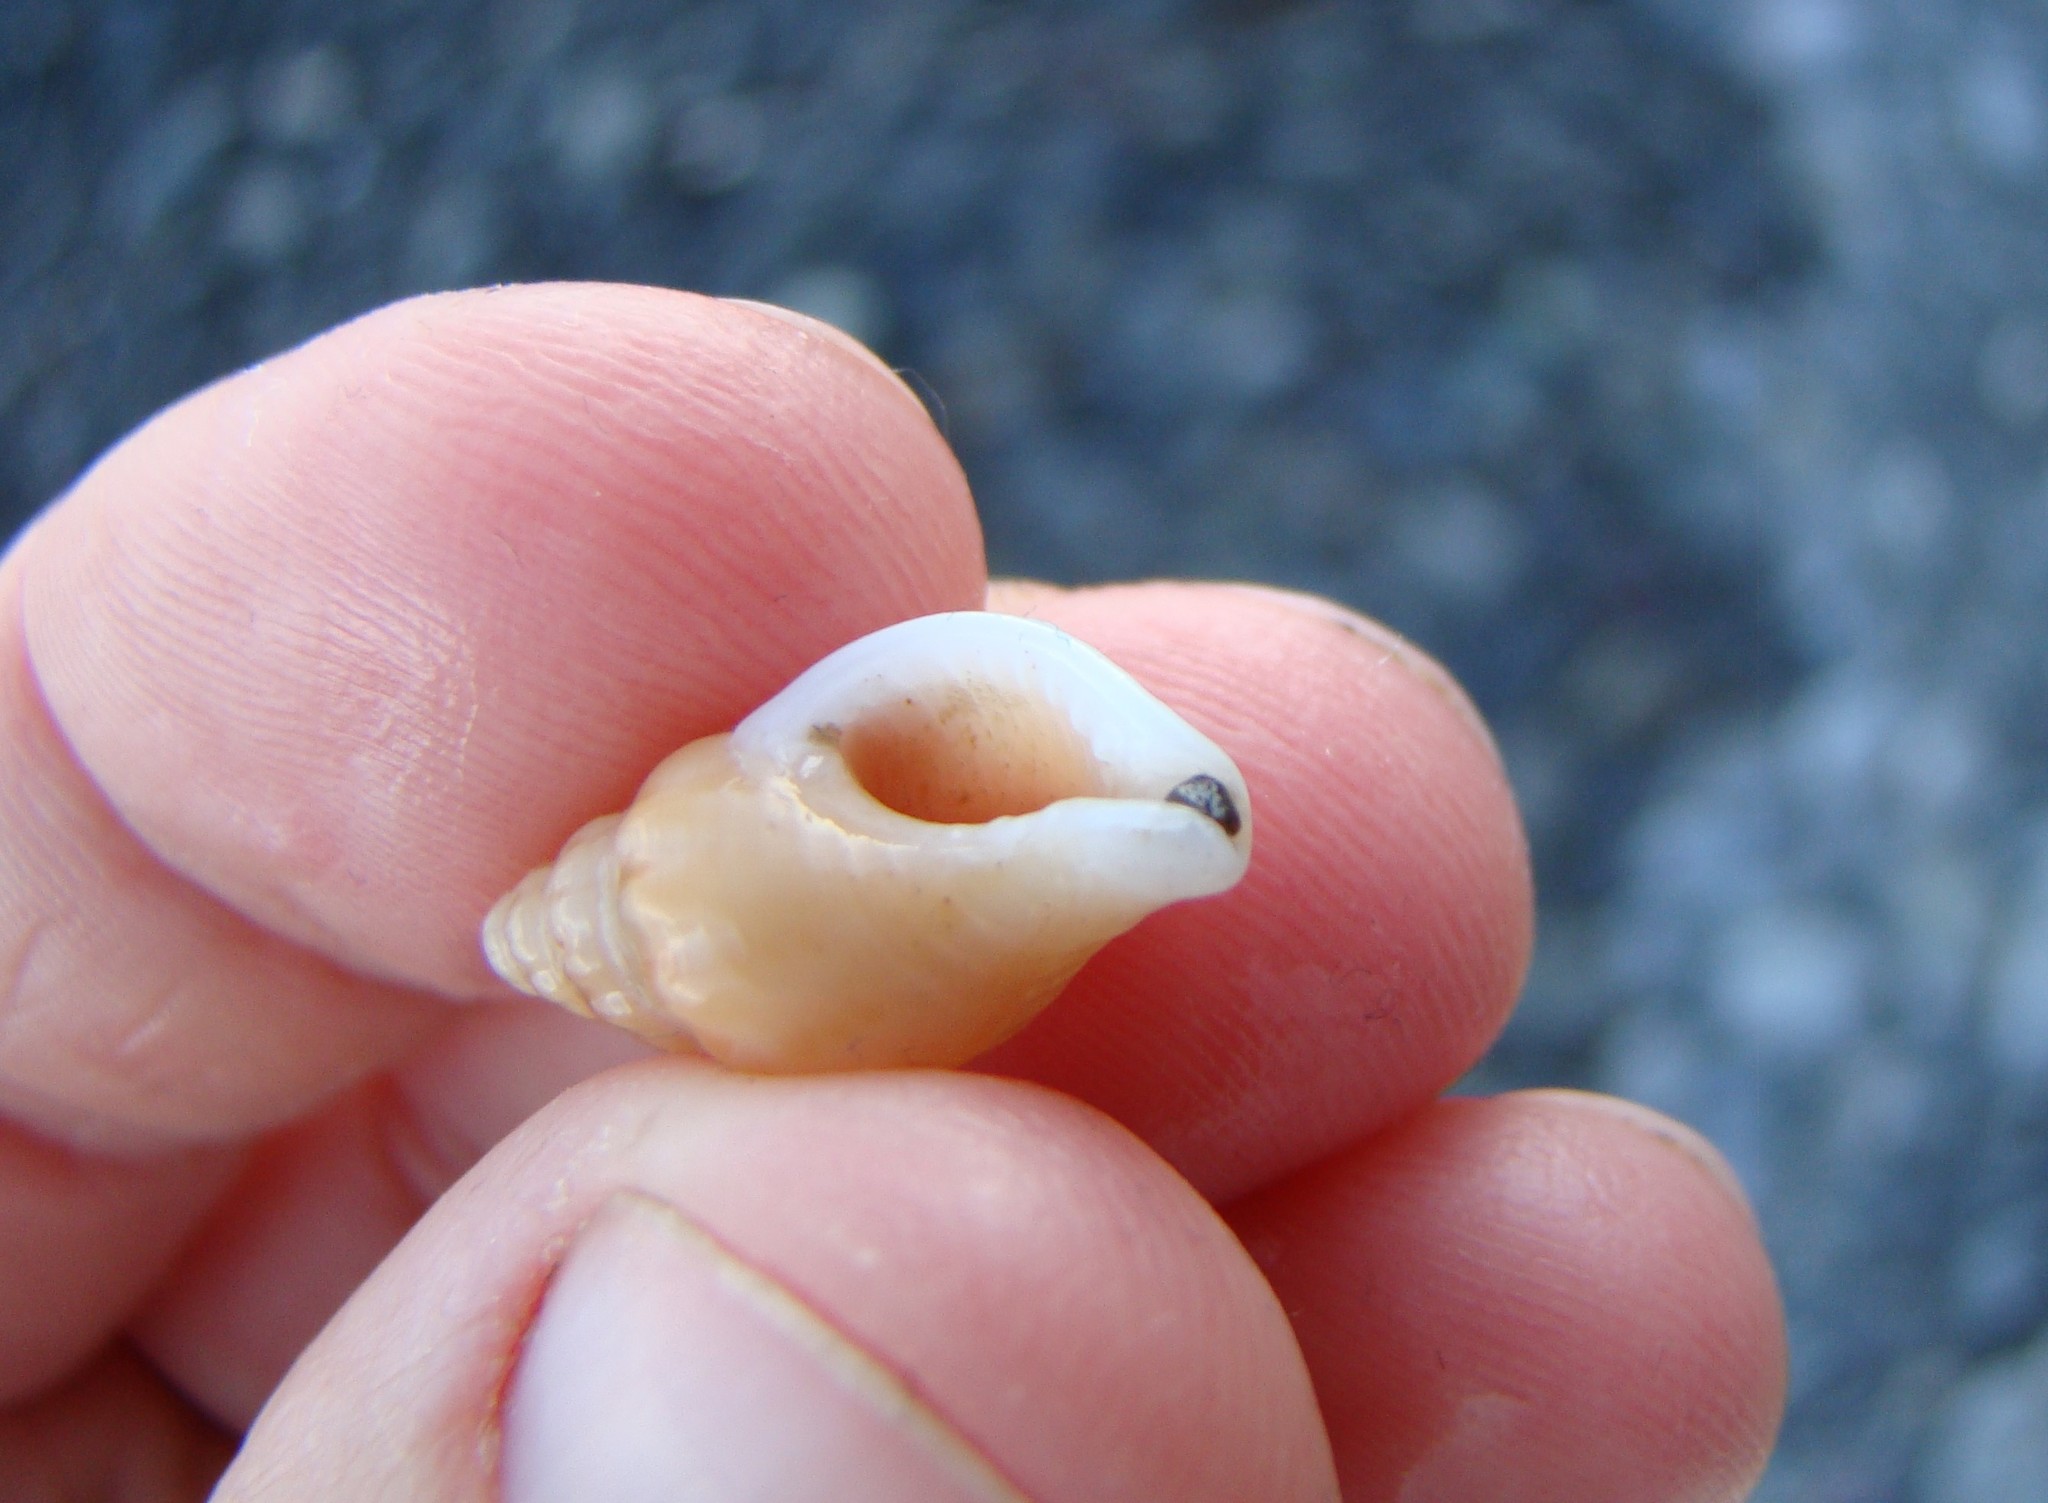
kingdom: Animalia
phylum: Mollusca
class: Gastropoda
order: Neogastropoda
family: Tudiclidae
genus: Buccinulum
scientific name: Buccinulum littorinoides
